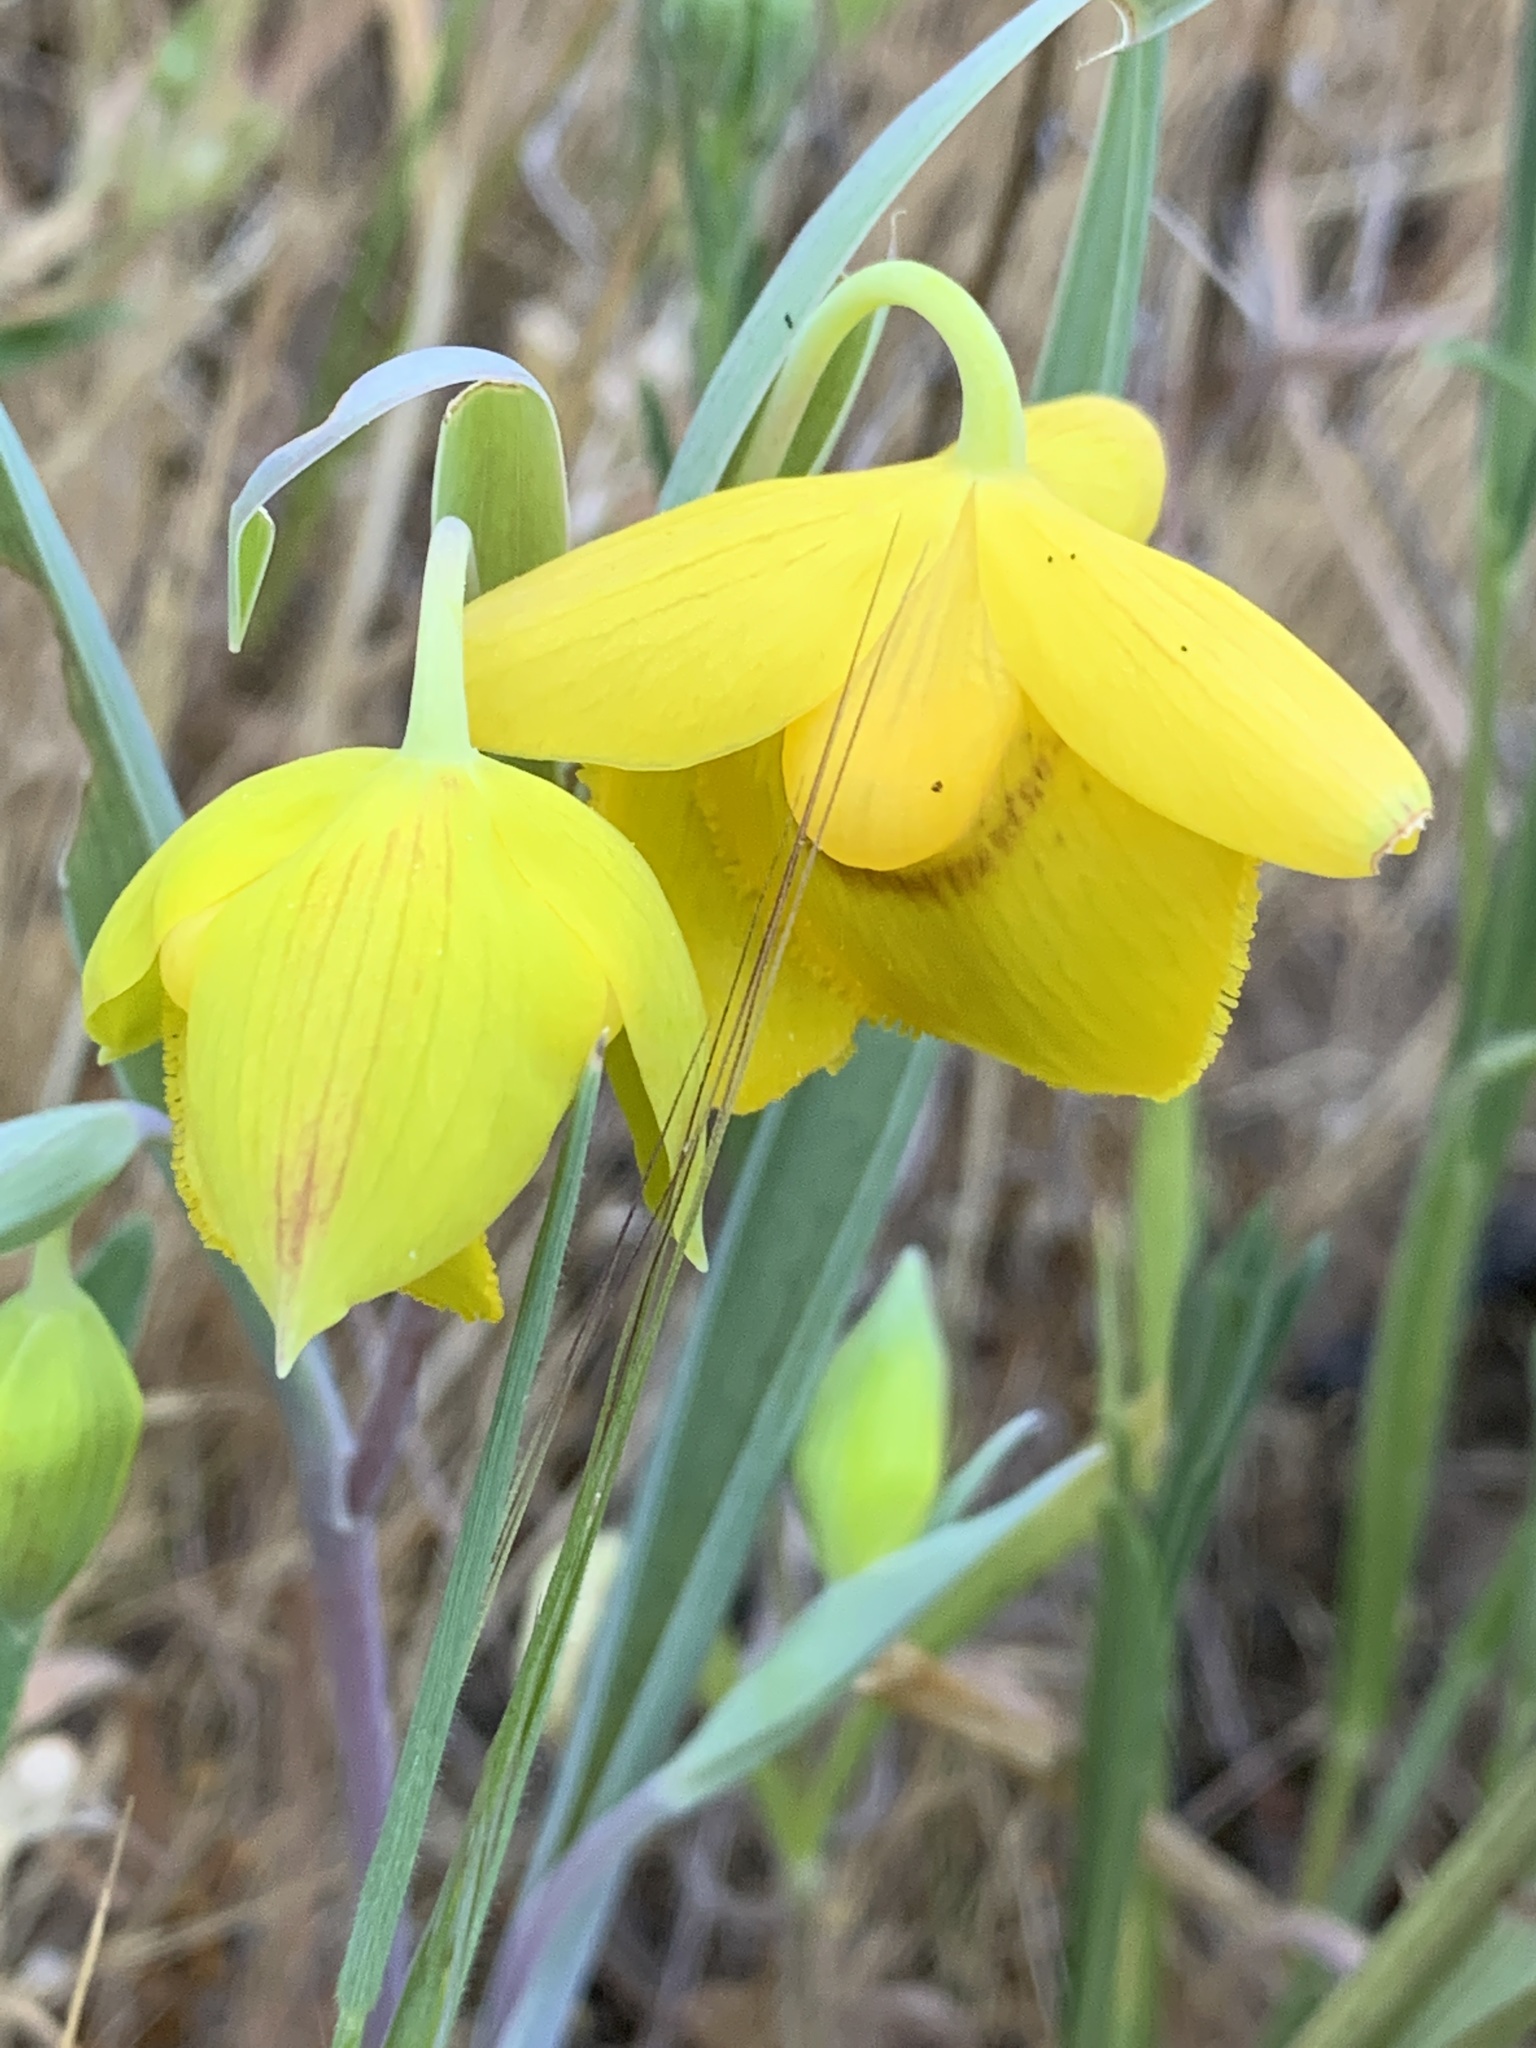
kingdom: Plantae
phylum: Tracheophyta
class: Liliopsida
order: Liliales
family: Liliaceae
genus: Calochortus
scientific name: Calochortus amabilis
